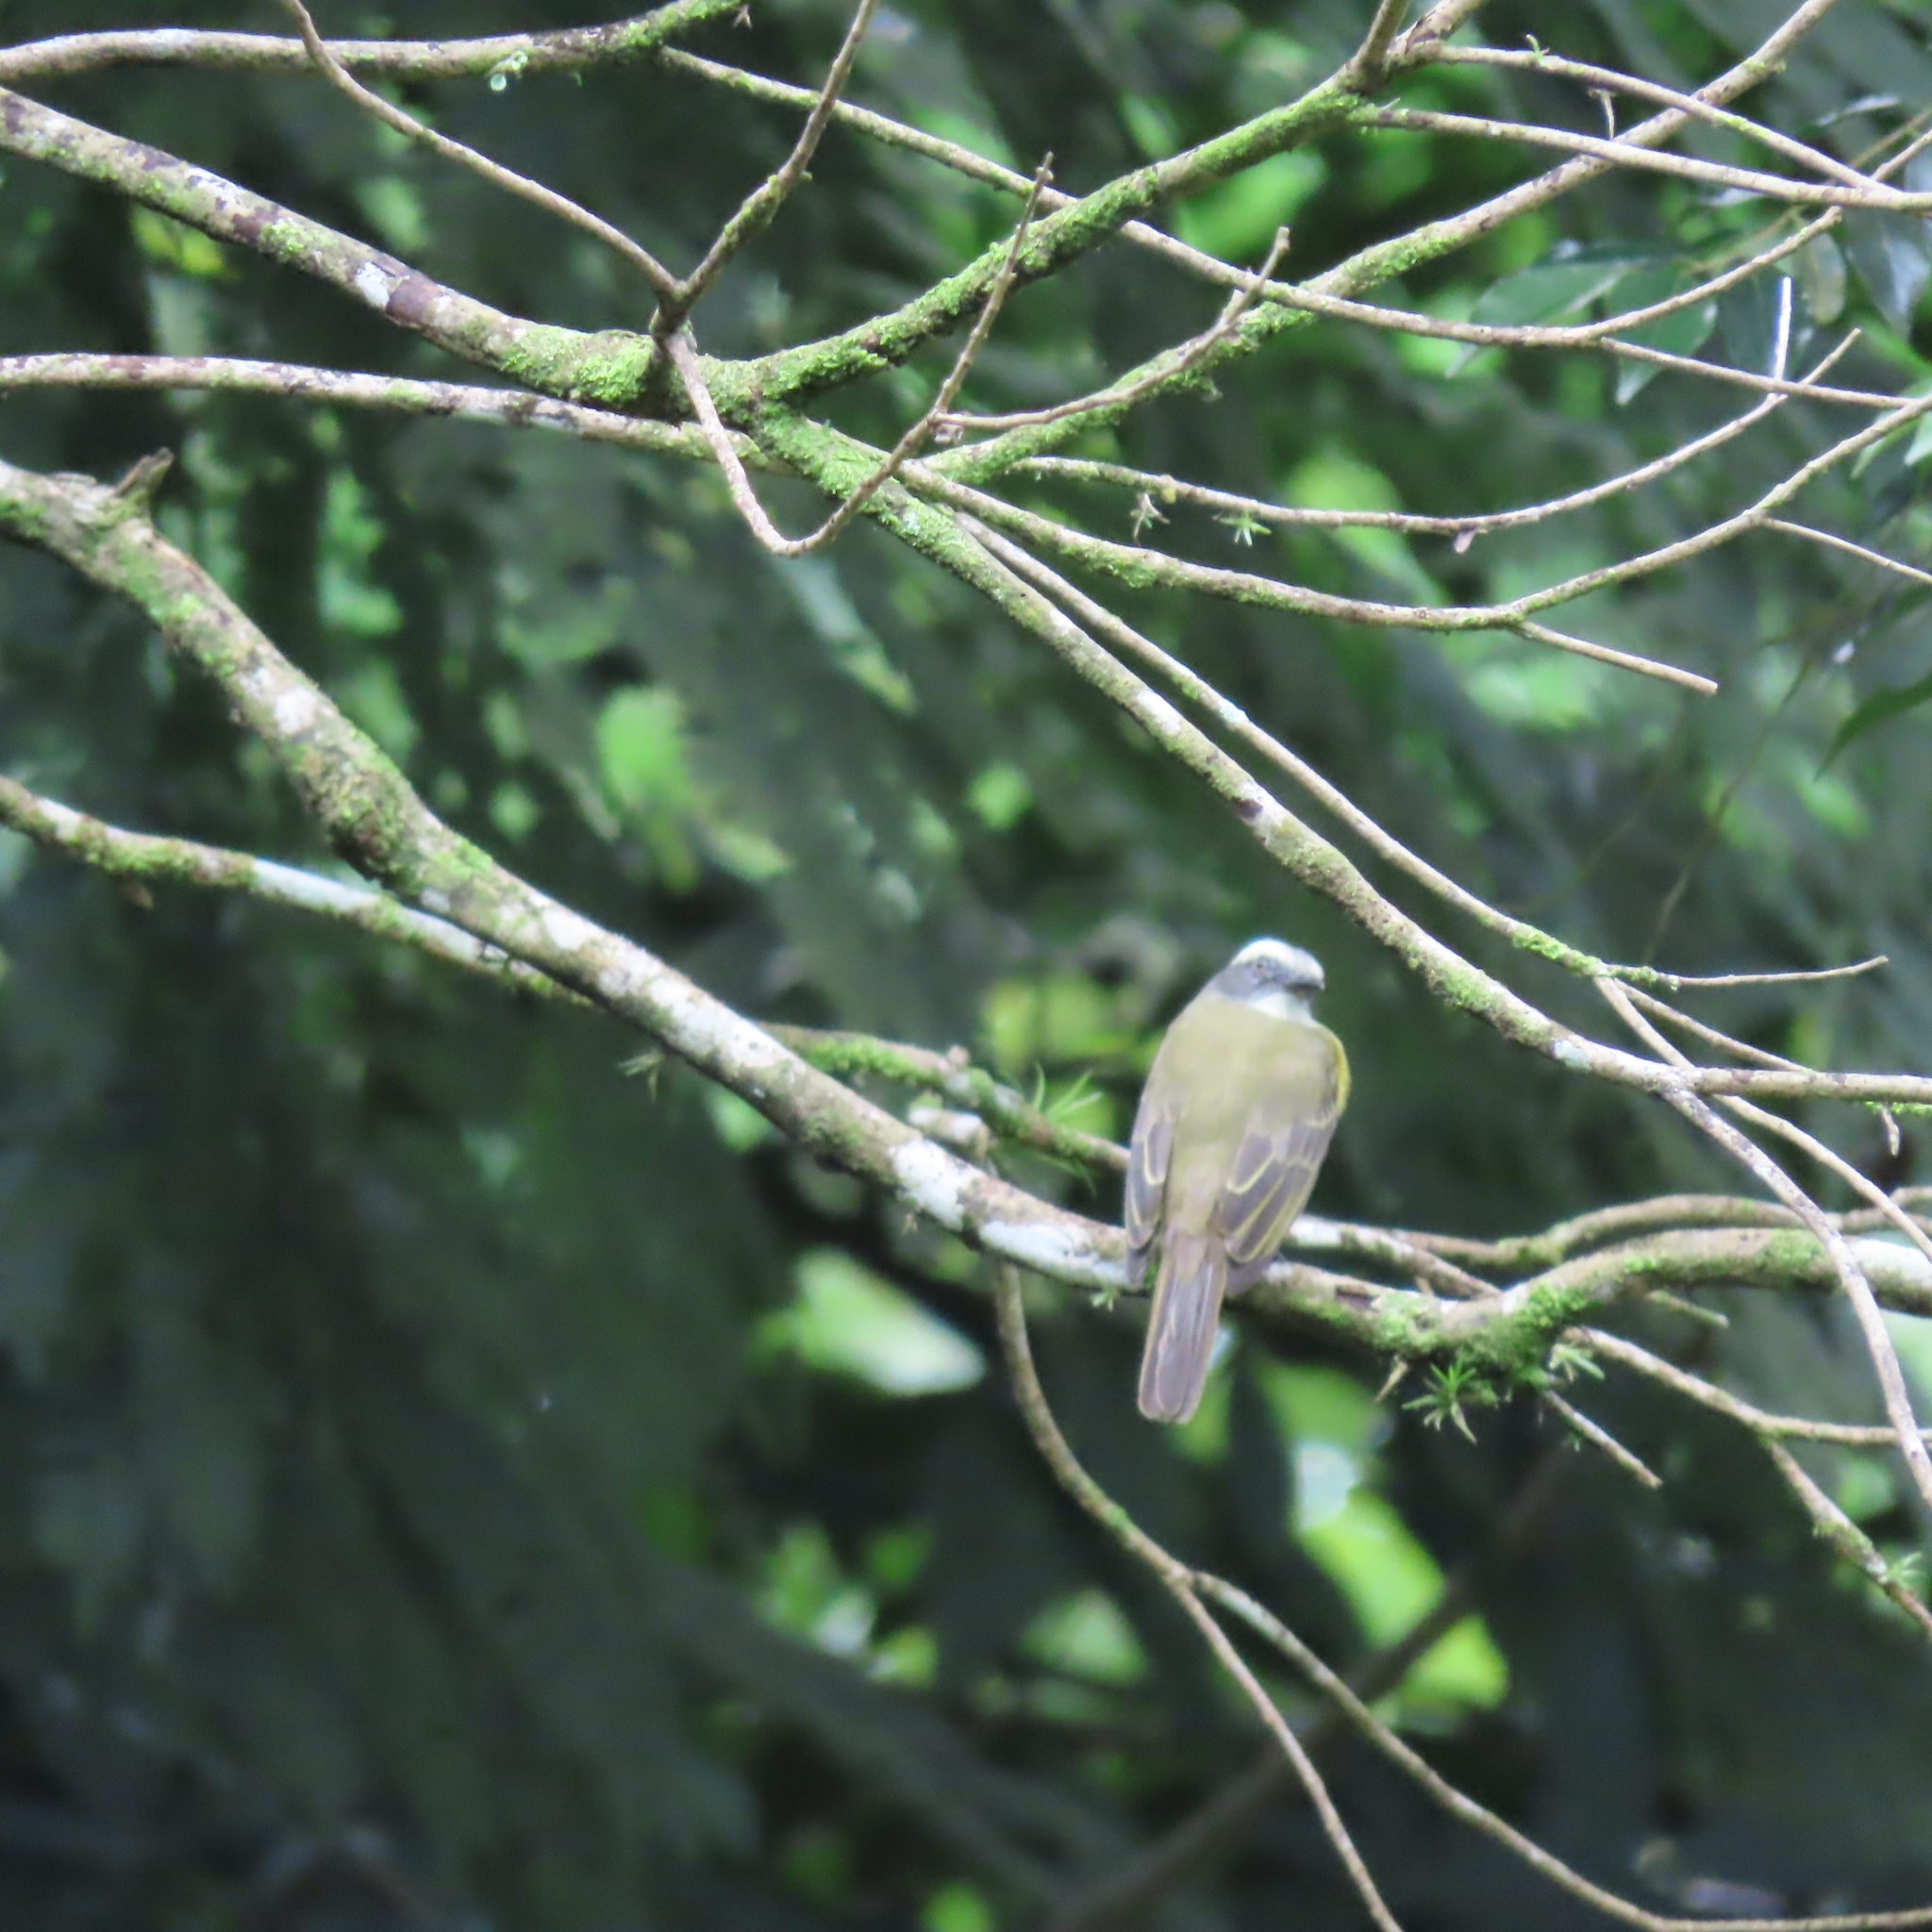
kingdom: Animalia
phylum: Chordata
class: Aves
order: Passeriformes
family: Tyrannidae
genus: Myiozetetes
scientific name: Myiozetetes similis
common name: Social flycatcher
